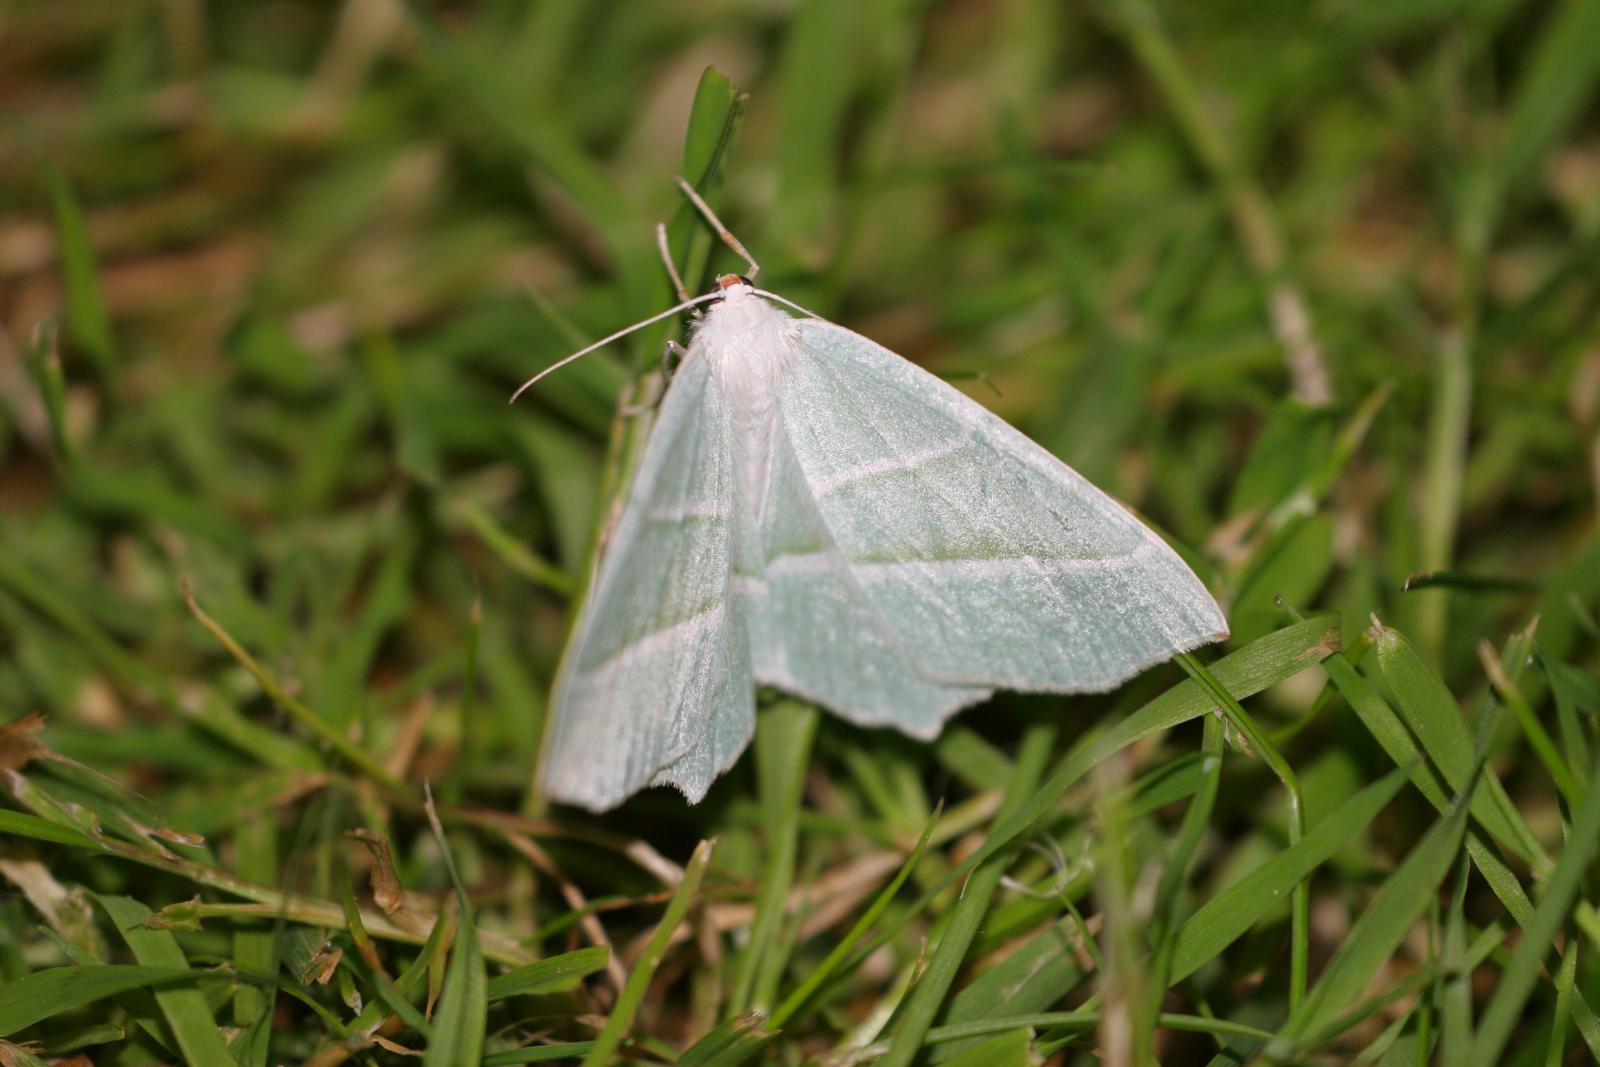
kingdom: Animalia
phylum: Arthropoda
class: Insecta
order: Lepidoptera
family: Geometridae
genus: Campaea
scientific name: Campaea margaritaria
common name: Light emerald
